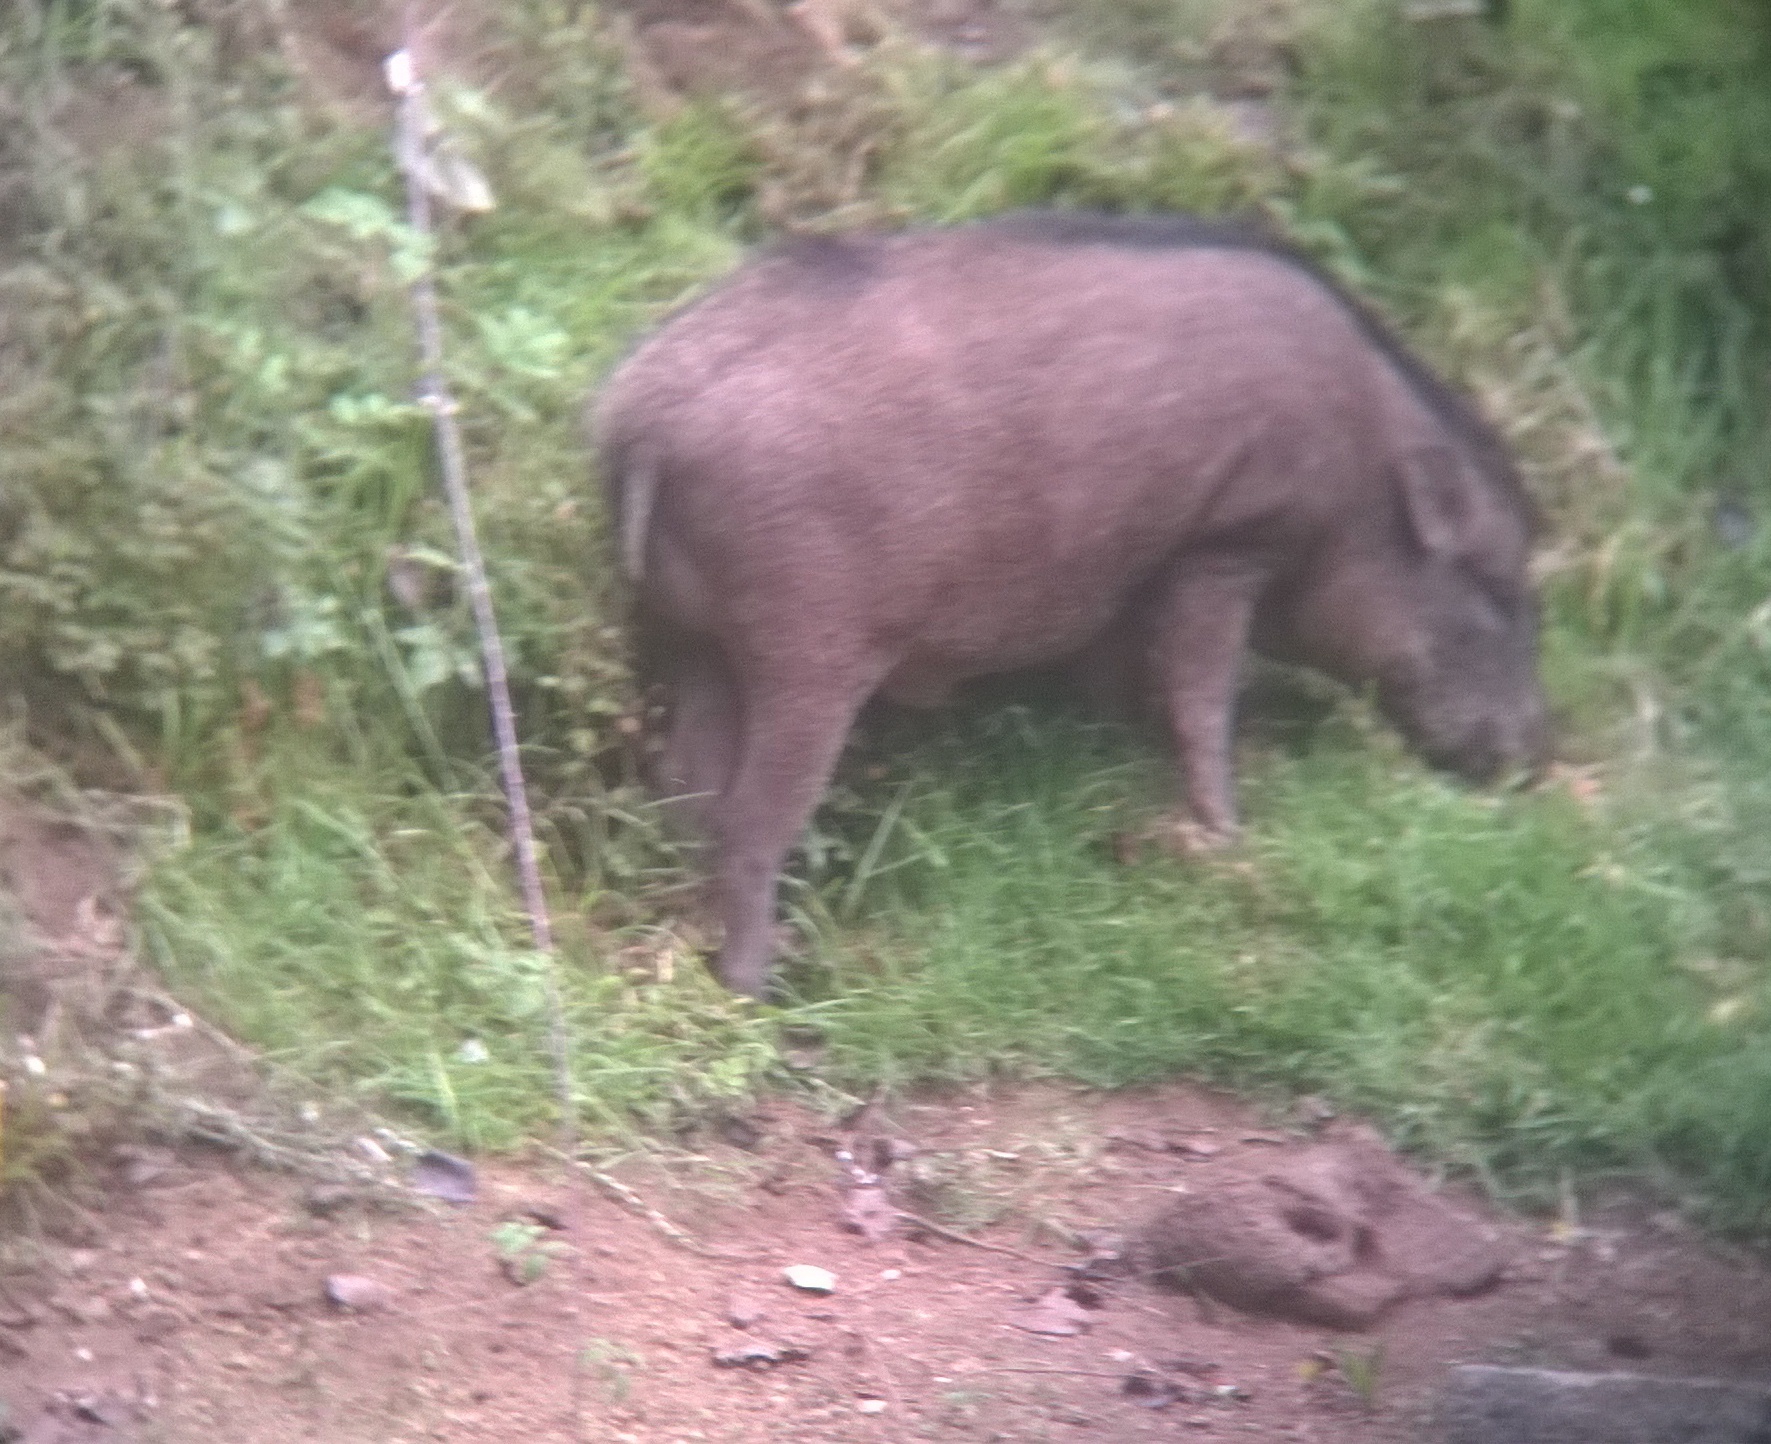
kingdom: Animalia
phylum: Chordata
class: Mammalia
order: Artiodactyla
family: Suidae
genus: Sus
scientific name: Sus scrofa
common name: Wild boar
